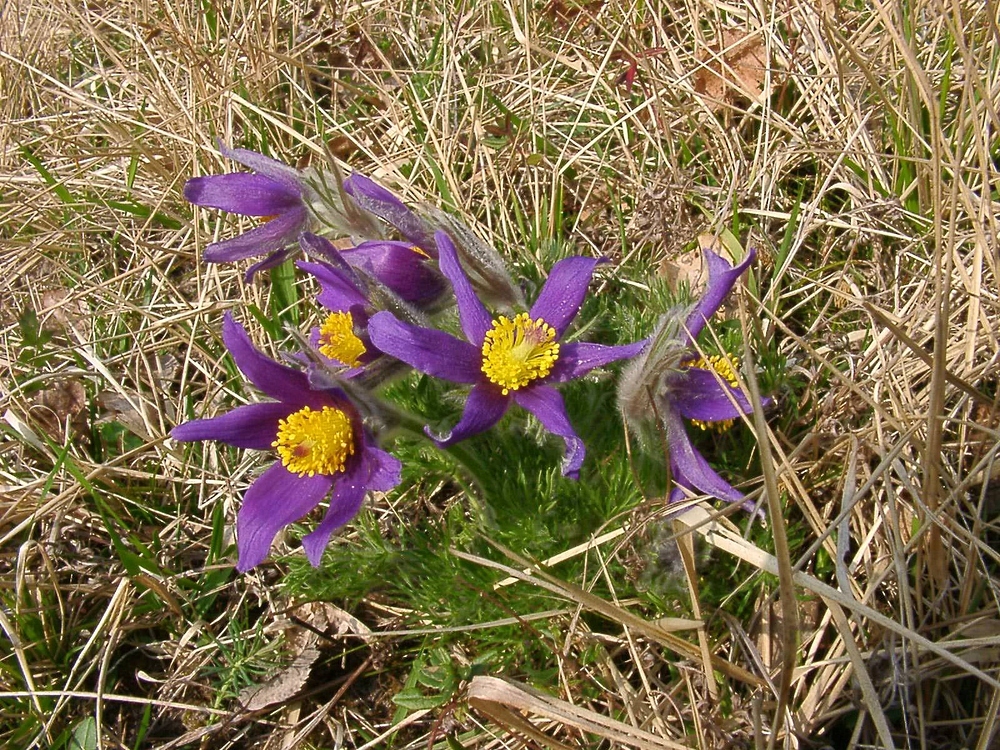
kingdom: Plantae
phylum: Tracheophyta
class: Magnoliopsida
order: Ranunculales
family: Ranunculaceae
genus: Pulsatilla
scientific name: Pulsatilla vulgaris
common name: Pasqueflower
